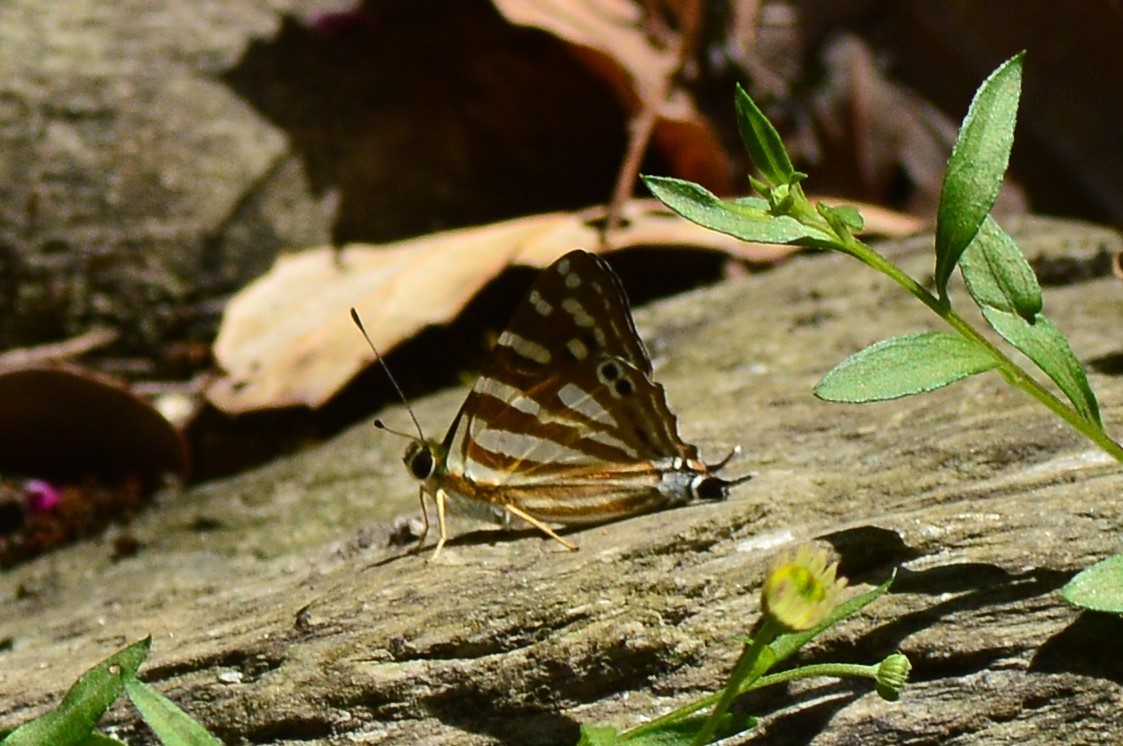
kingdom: Animalia
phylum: Arthropoda
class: Insecta
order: Lepidoptera
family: Lycaenidae
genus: Dodona
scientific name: Dodona eugenes
